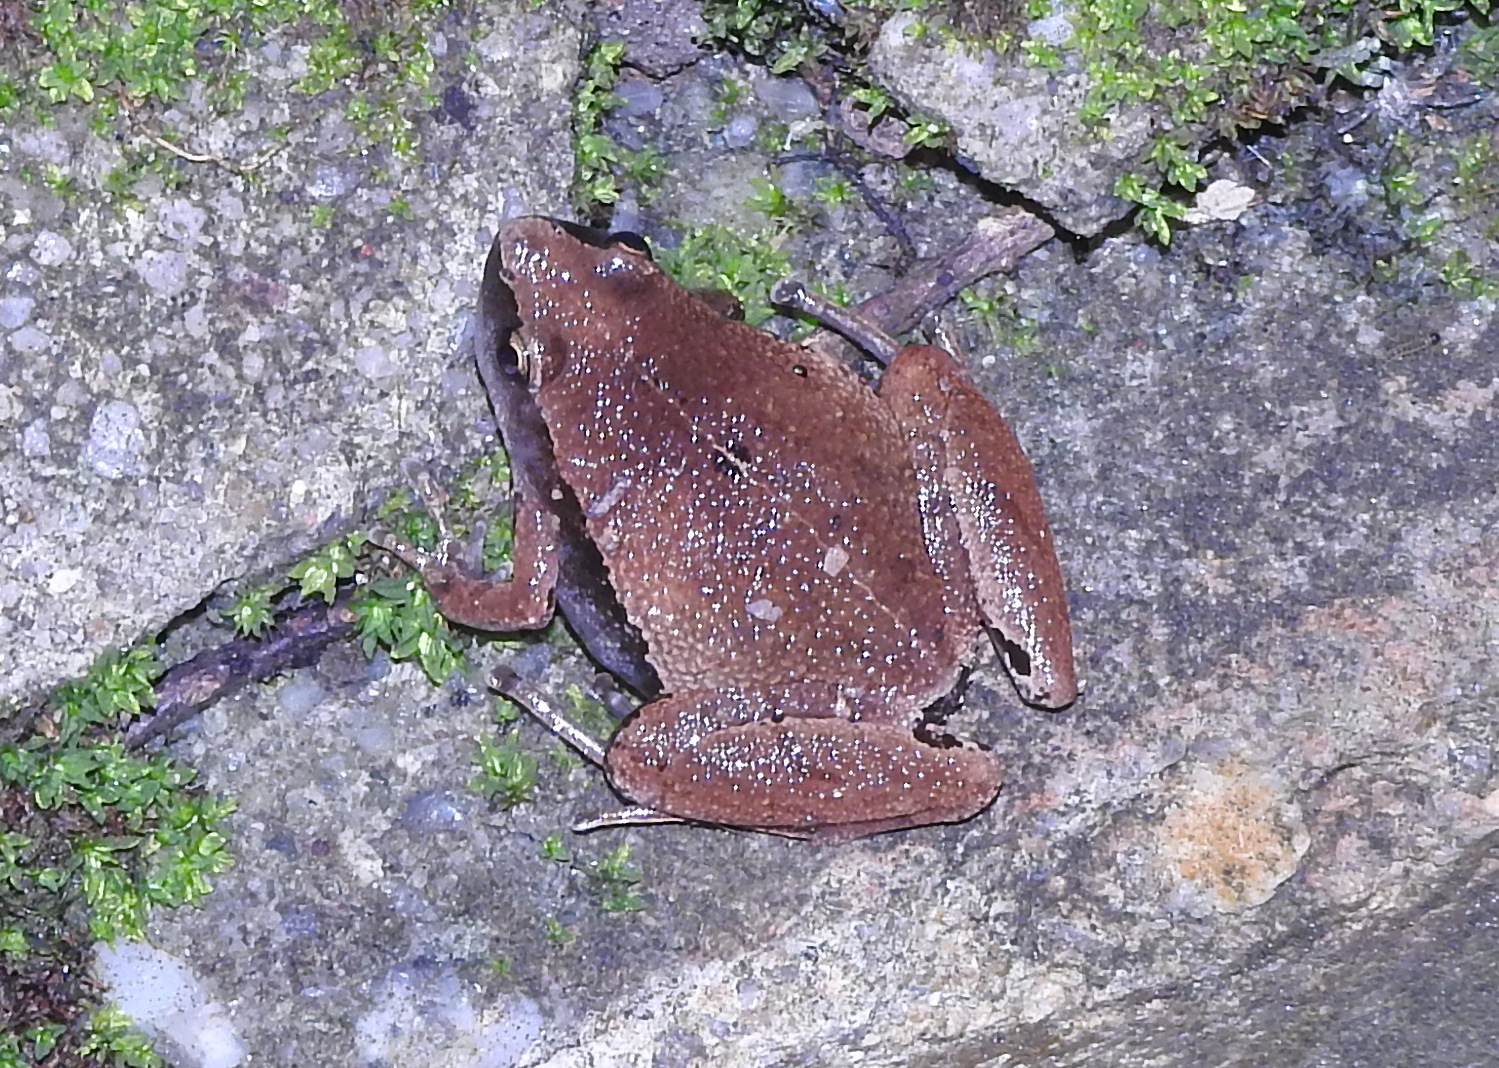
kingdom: Animalia
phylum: Chordata
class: Amphibia
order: Anura
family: Microhylidae
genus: Microhyla
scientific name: Microhyla heymonsi
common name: Taiwan rice frog,dark sided chorus frog
